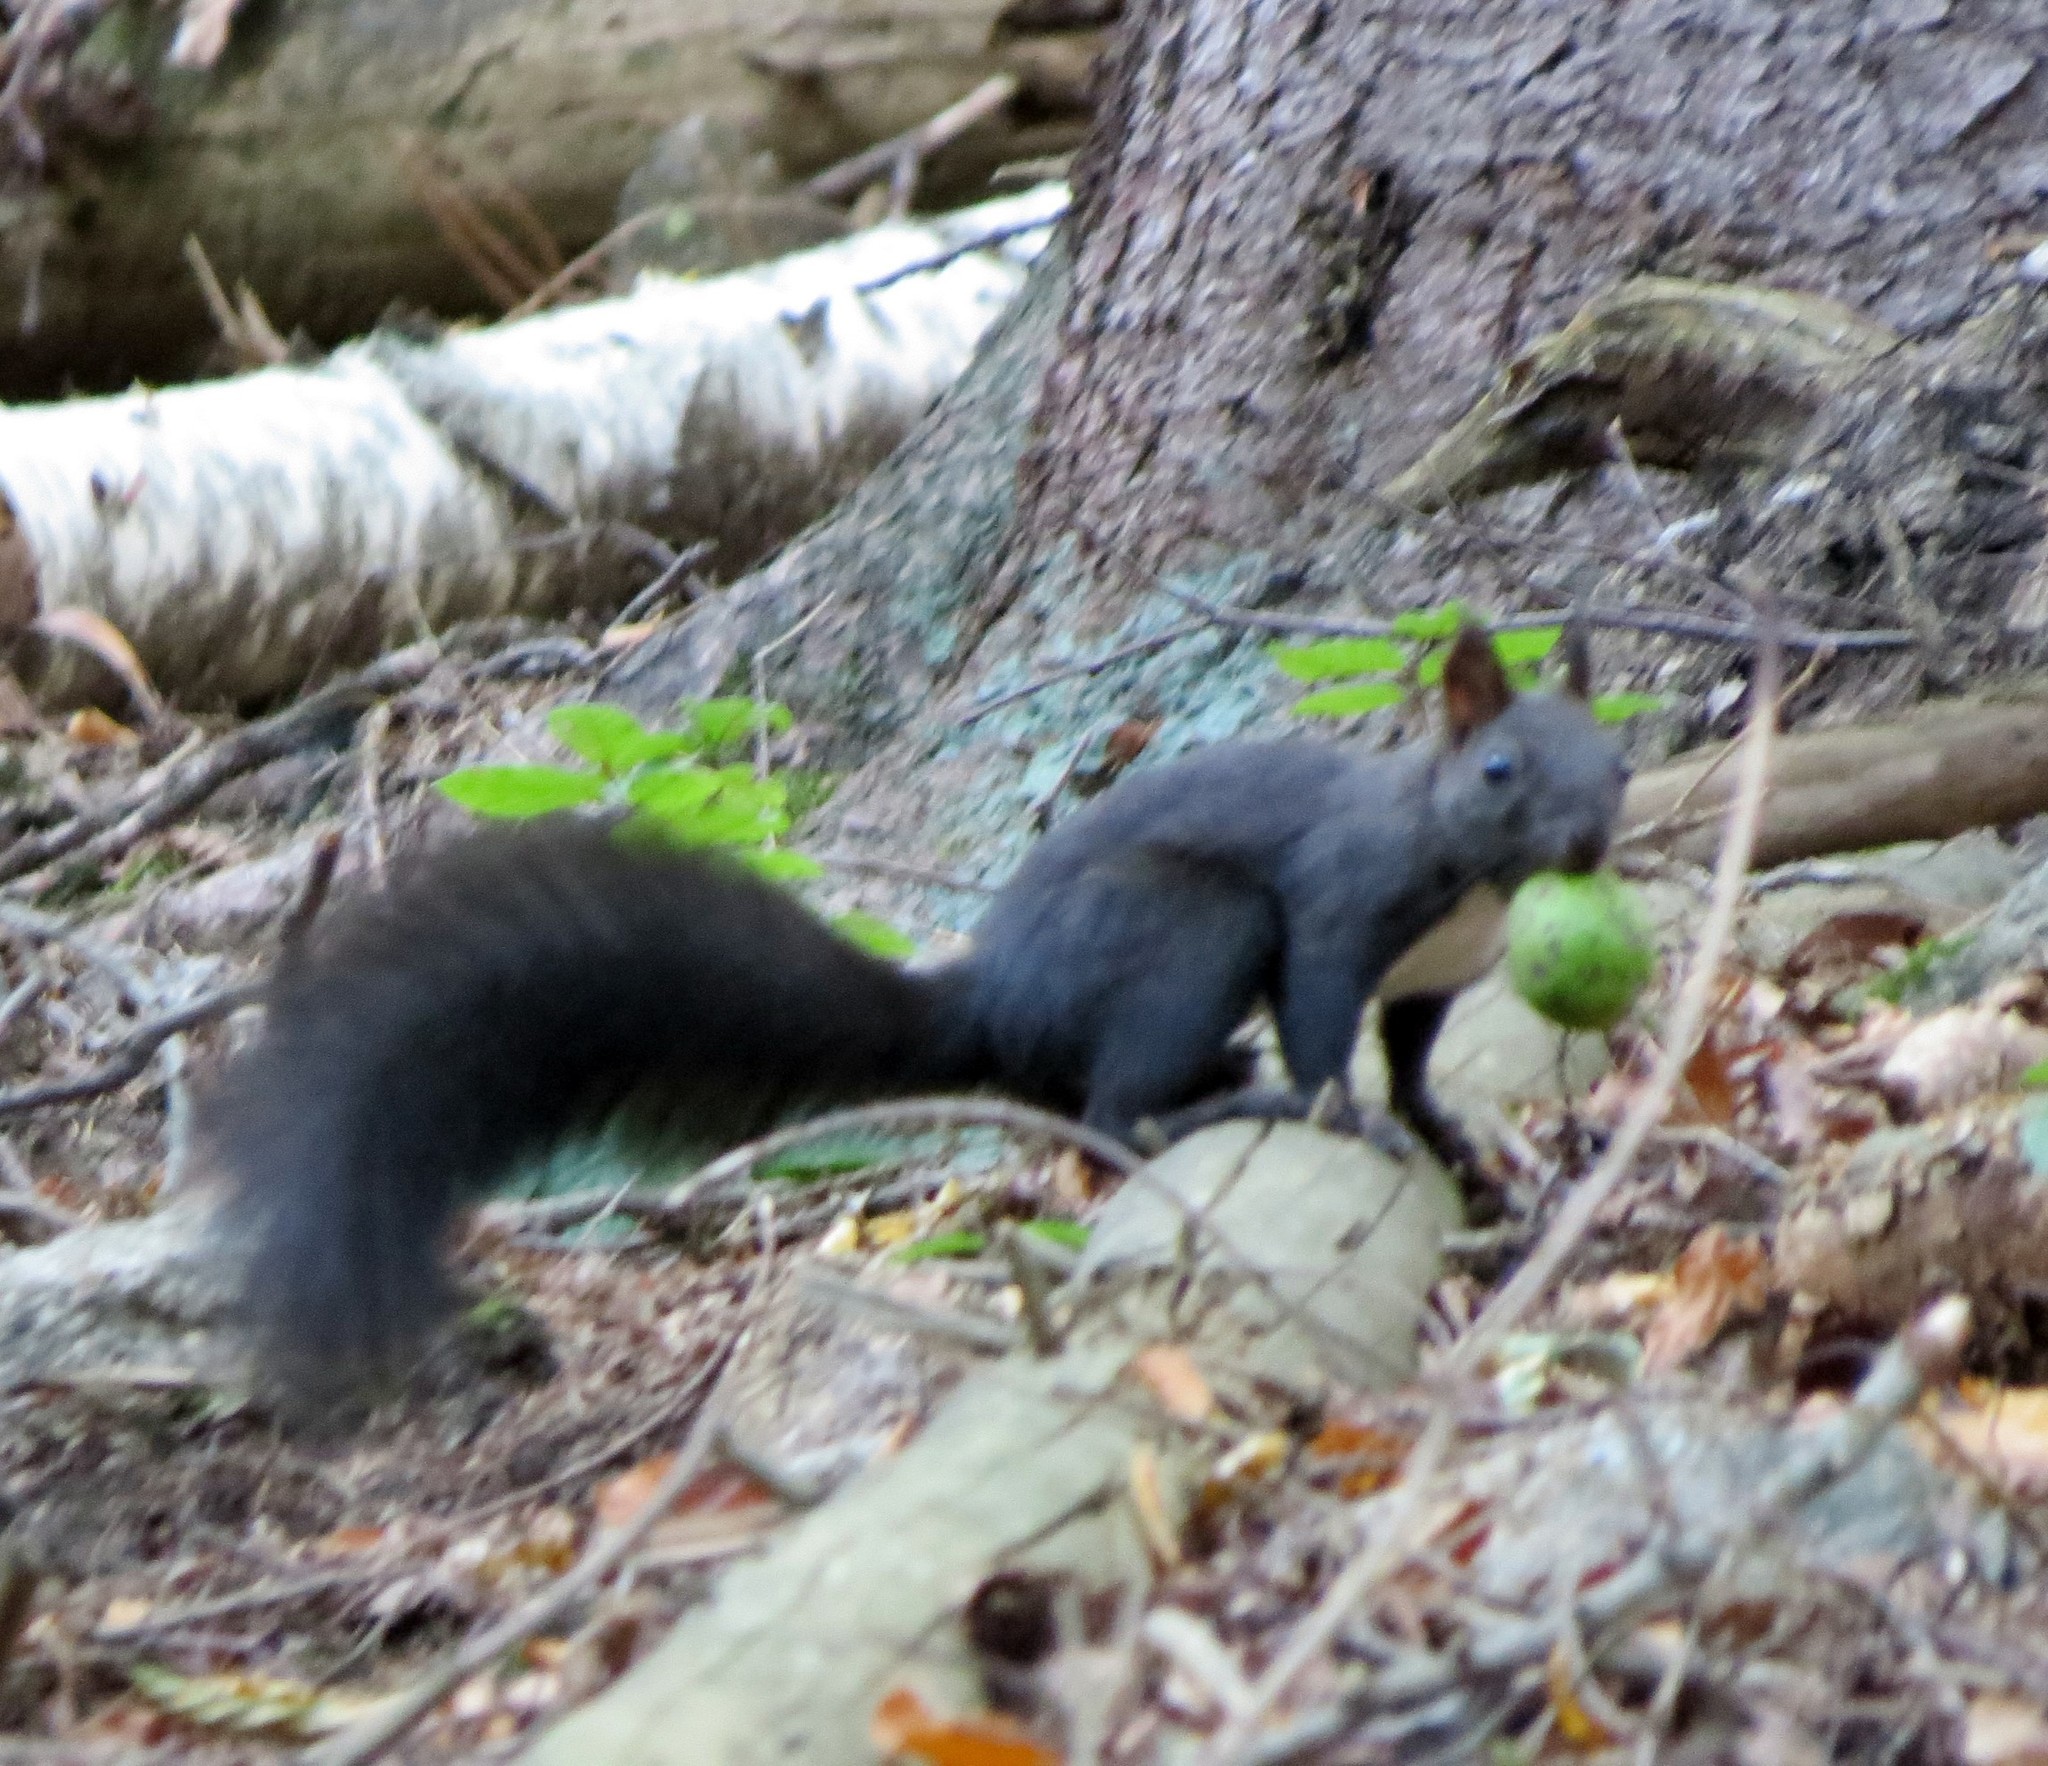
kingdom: Animalia
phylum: Chordata
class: Mammalia
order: Rodentia
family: Sciuridae
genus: Sciurus
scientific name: Sciurus vulgaris
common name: Eurasian red squirrel
